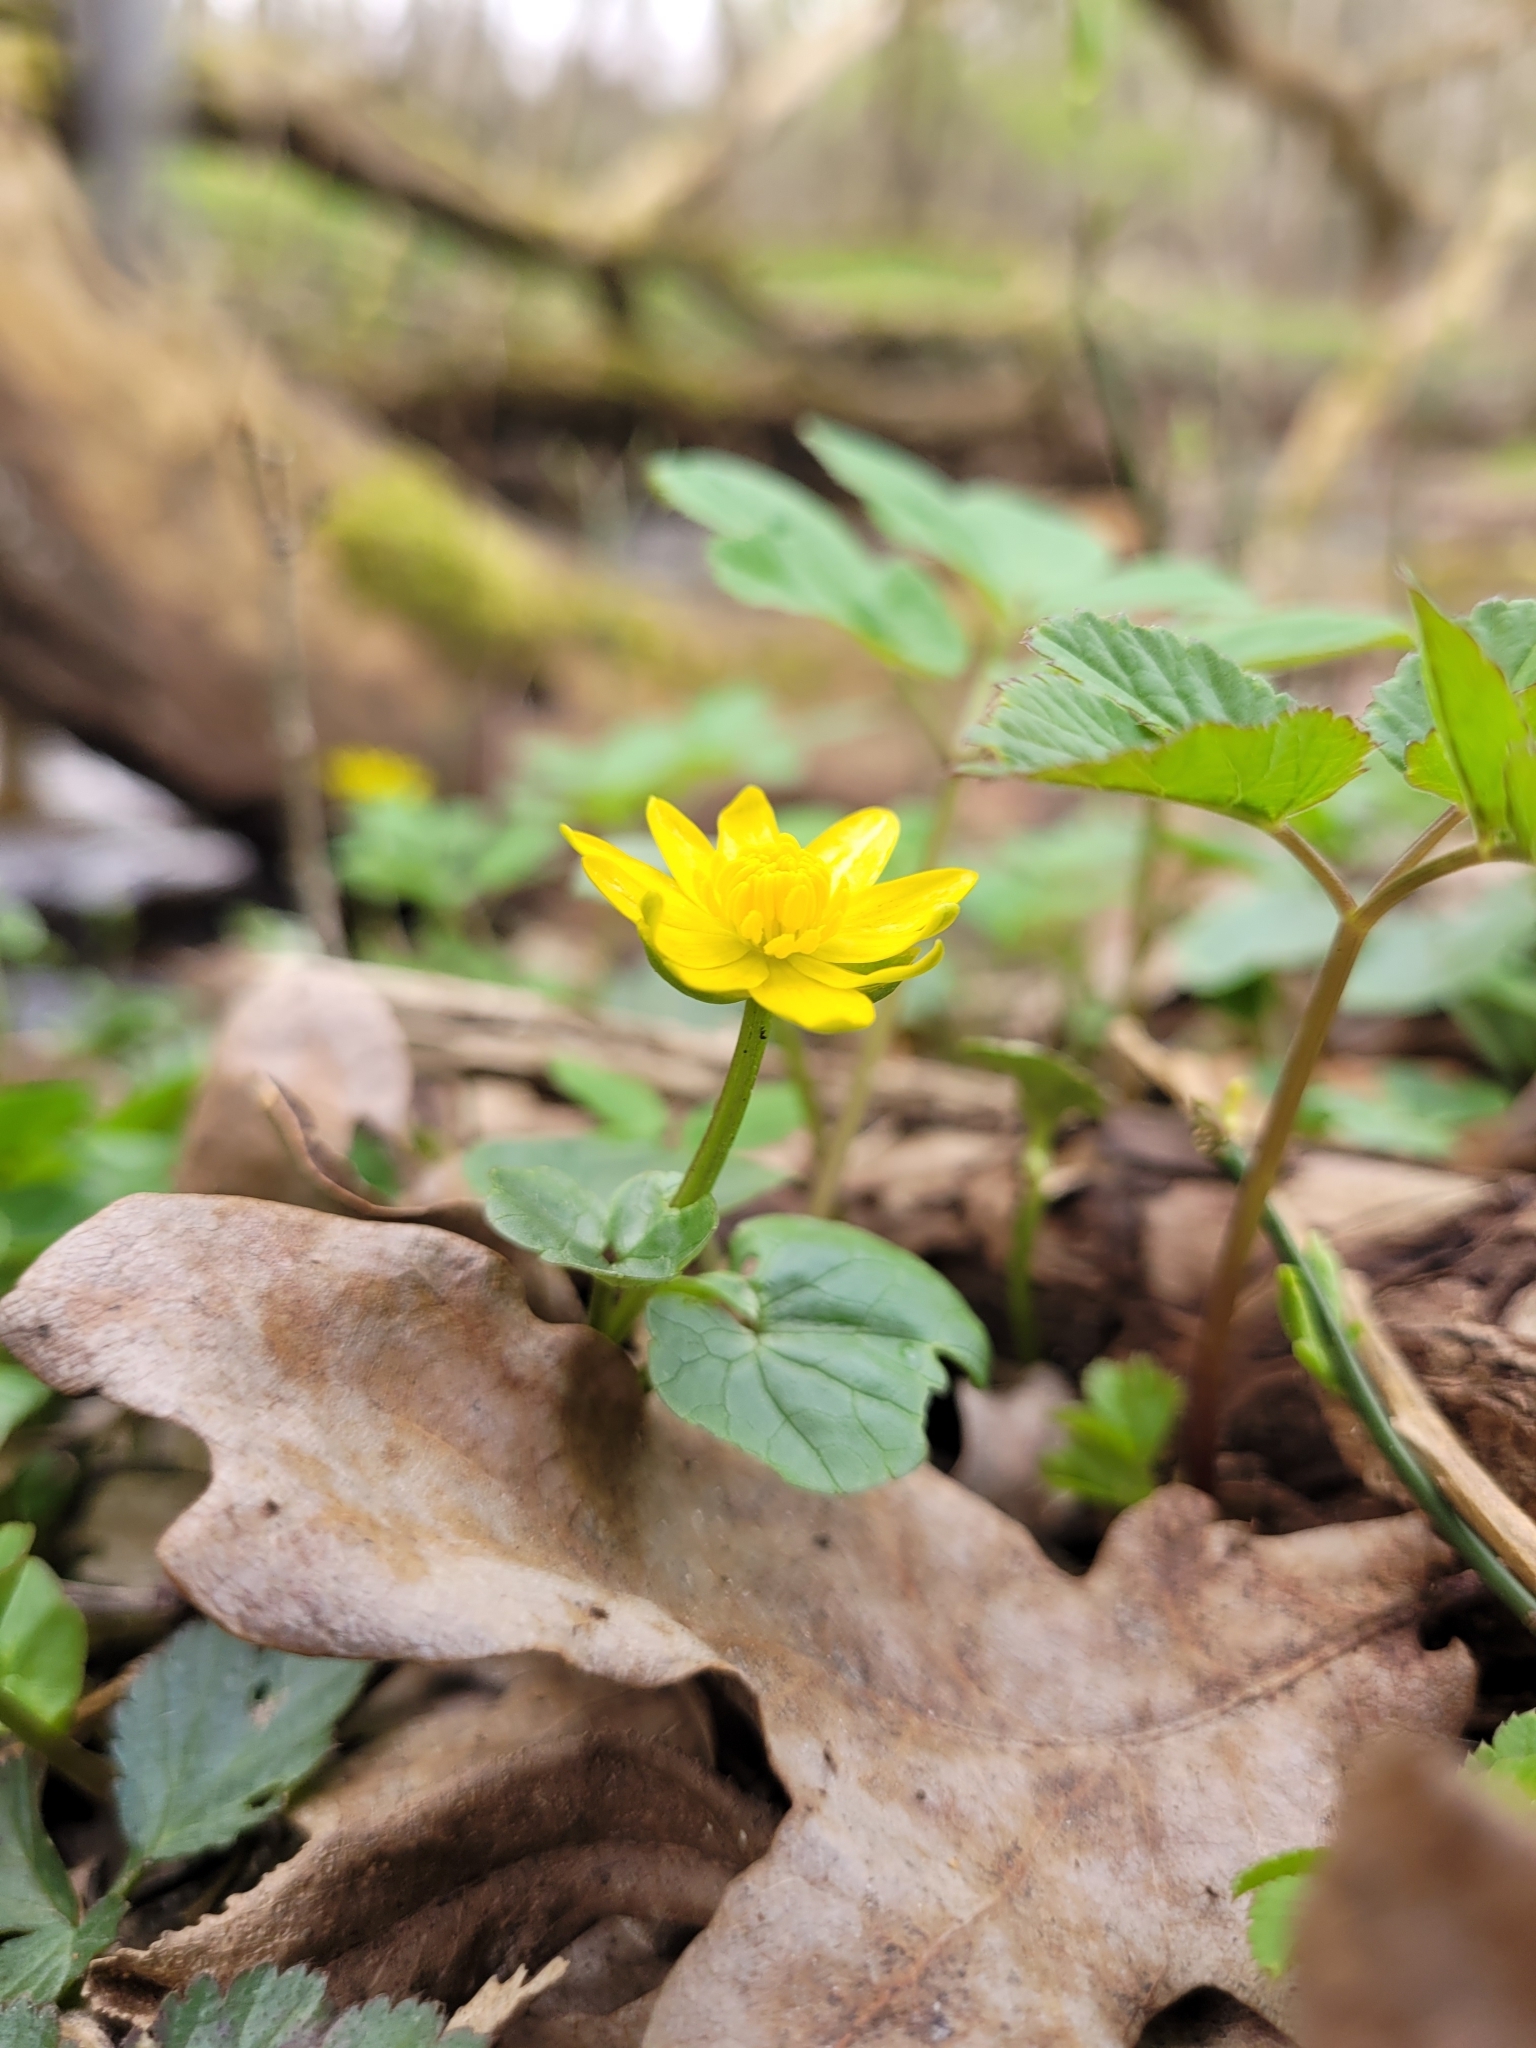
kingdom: Plantae
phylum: Tracheophyta
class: Magnoliopsida
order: Ranunculales
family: Ranunculaceae
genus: Ficaria
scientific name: Ficaria verna
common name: Lesser celandine
